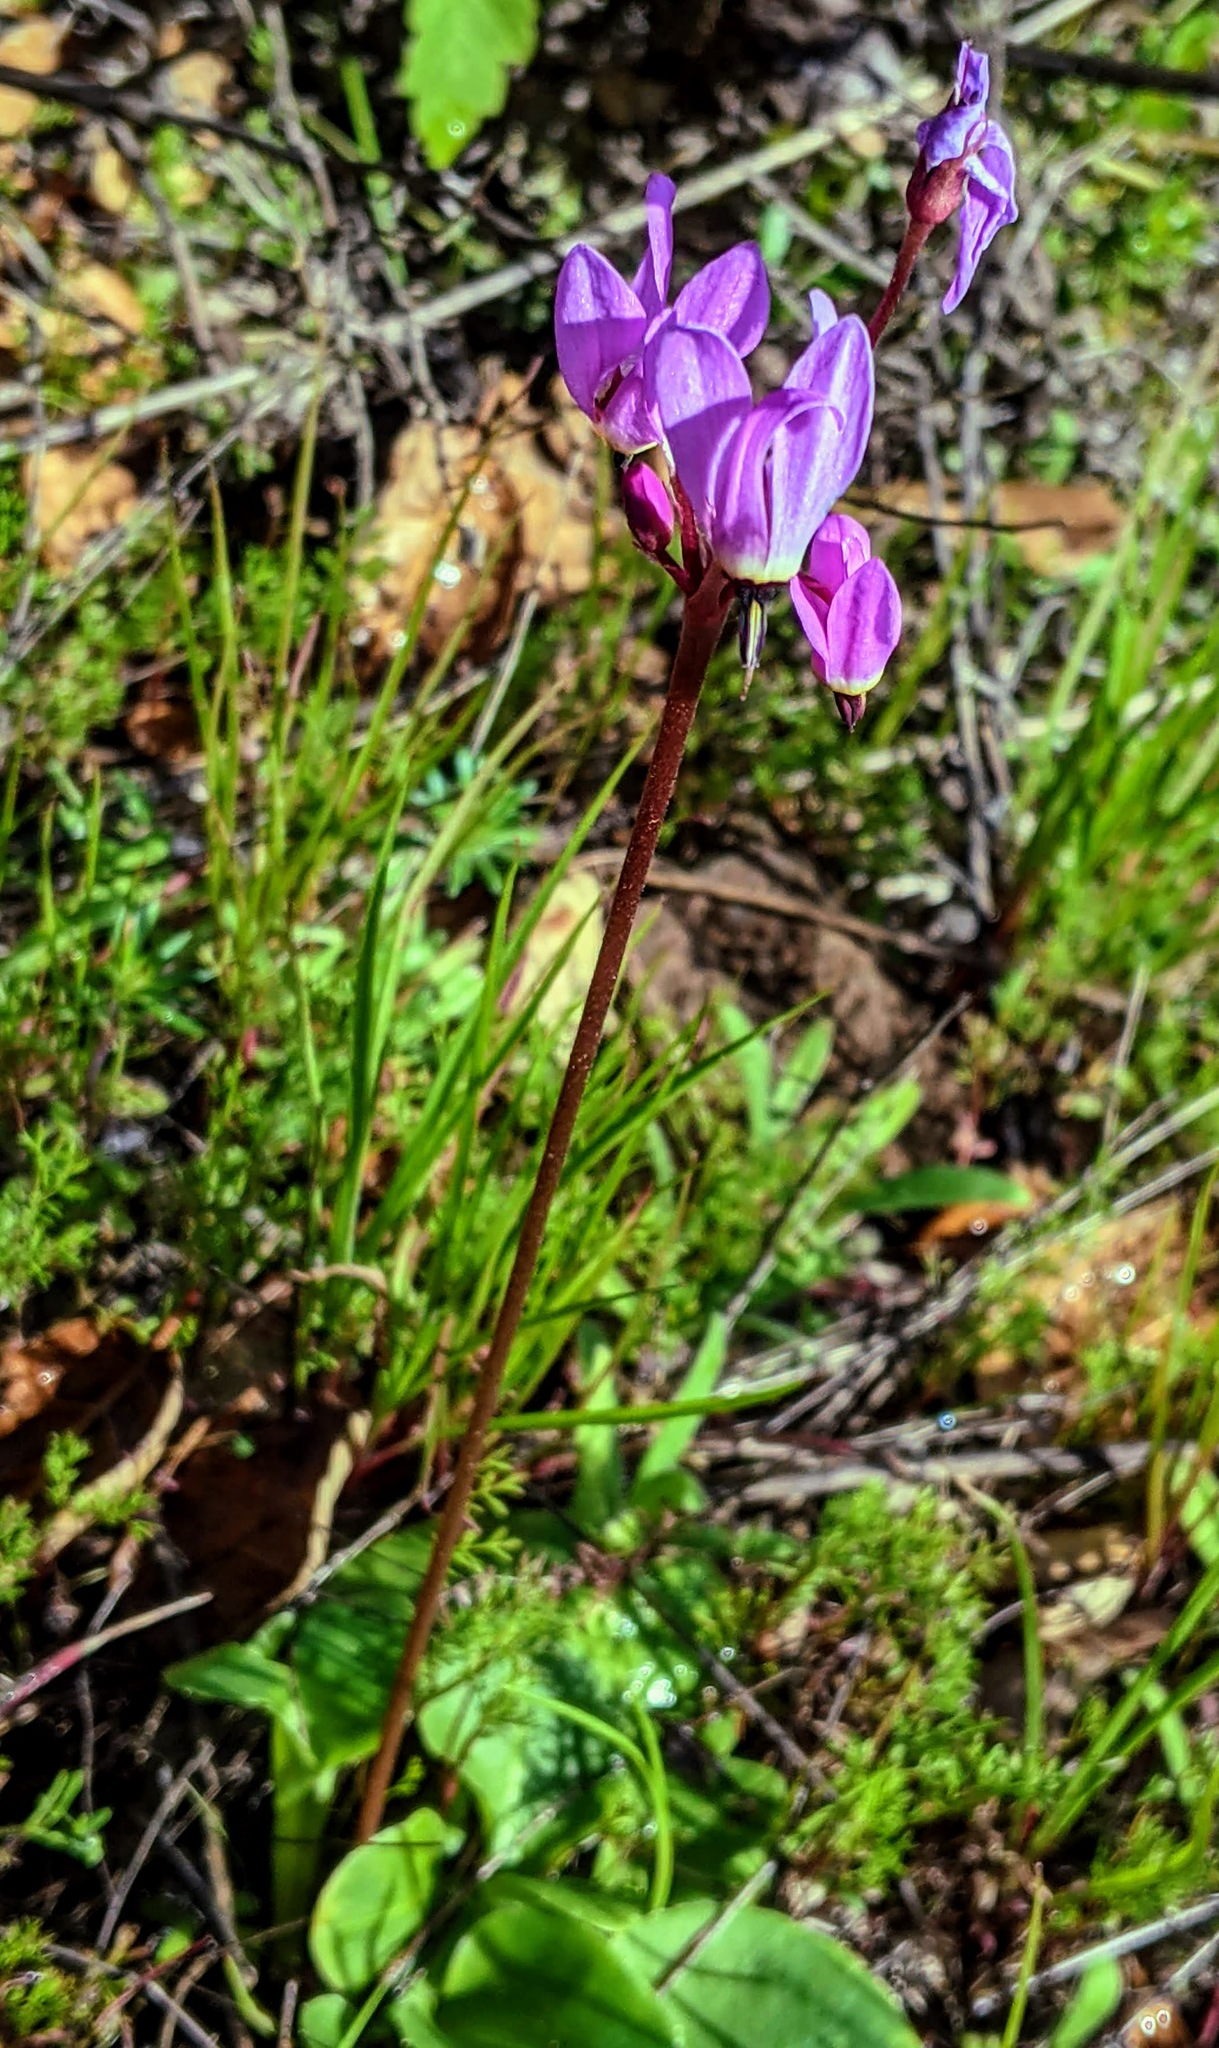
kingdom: Plantae
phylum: Tracheophyta
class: Magnoliopsida
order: Ericales
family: Primulaceae
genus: Dodecatheon
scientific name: Dodecatheon hendersonii
